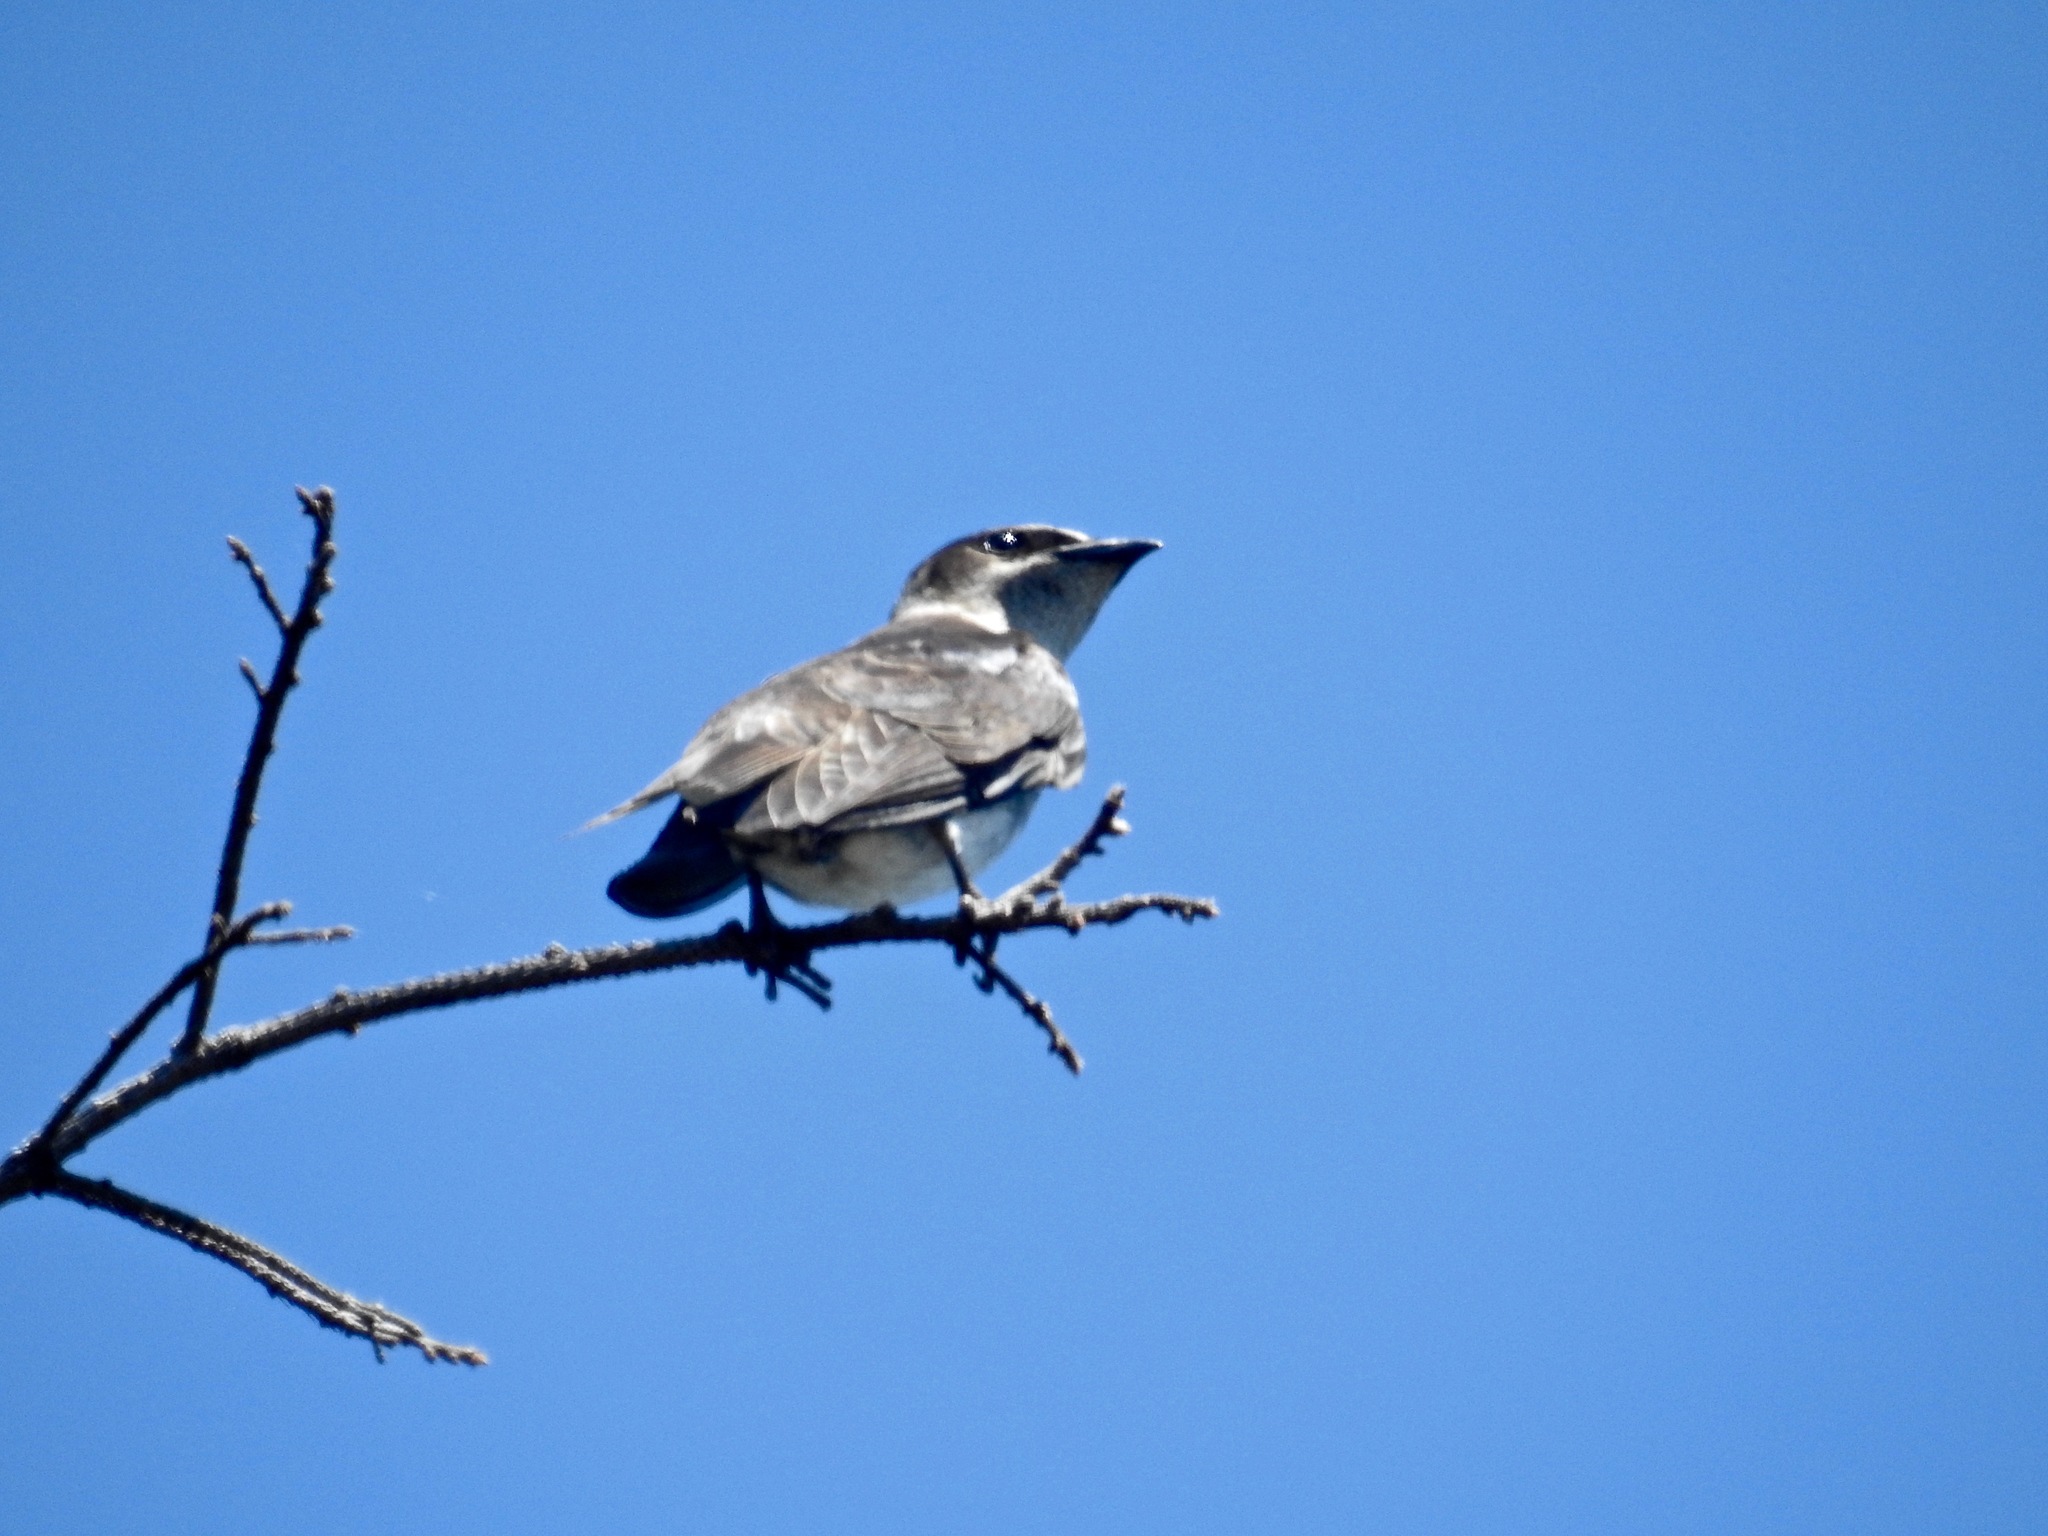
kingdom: Animalia
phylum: Chordata
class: Aves
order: Passeriformes
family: Hirundinidae
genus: Progne
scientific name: Progne subis
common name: Purple martin
